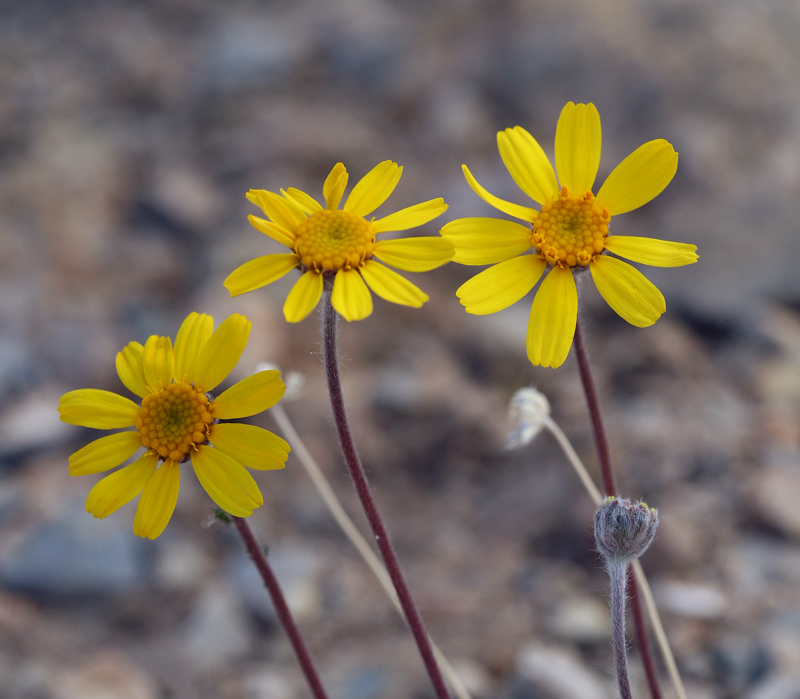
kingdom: Plantae
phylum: Tracheophyta
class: Magnoliopsida
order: Asterales
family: Asteraceae
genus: Tetraneuris
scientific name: Tetraneuris acaulis
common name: Butte marigold
